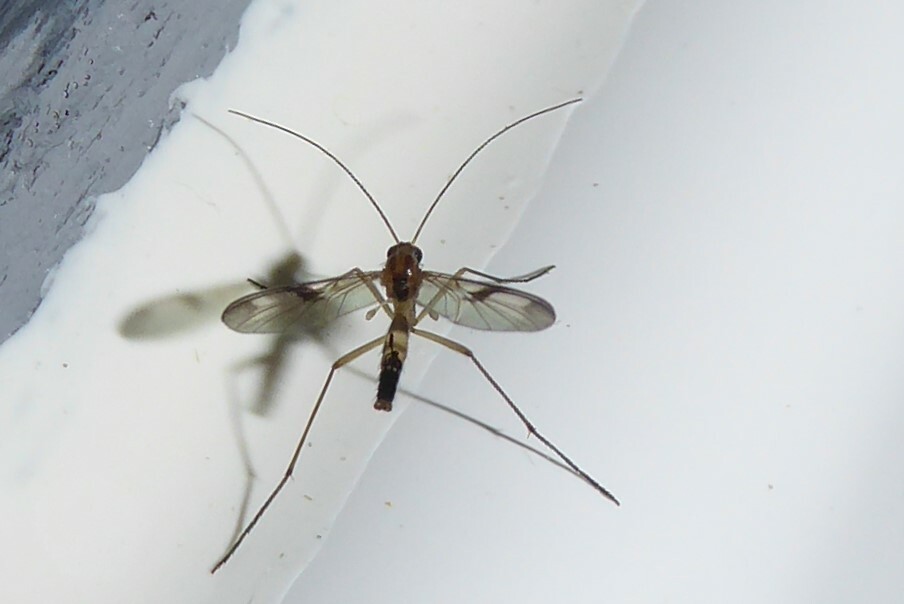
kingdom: Animalia
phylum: Arthropoda
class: Insecta
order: Diptera
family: Keroplatidae
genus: Macrocera
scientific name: Macrocera scoparia
